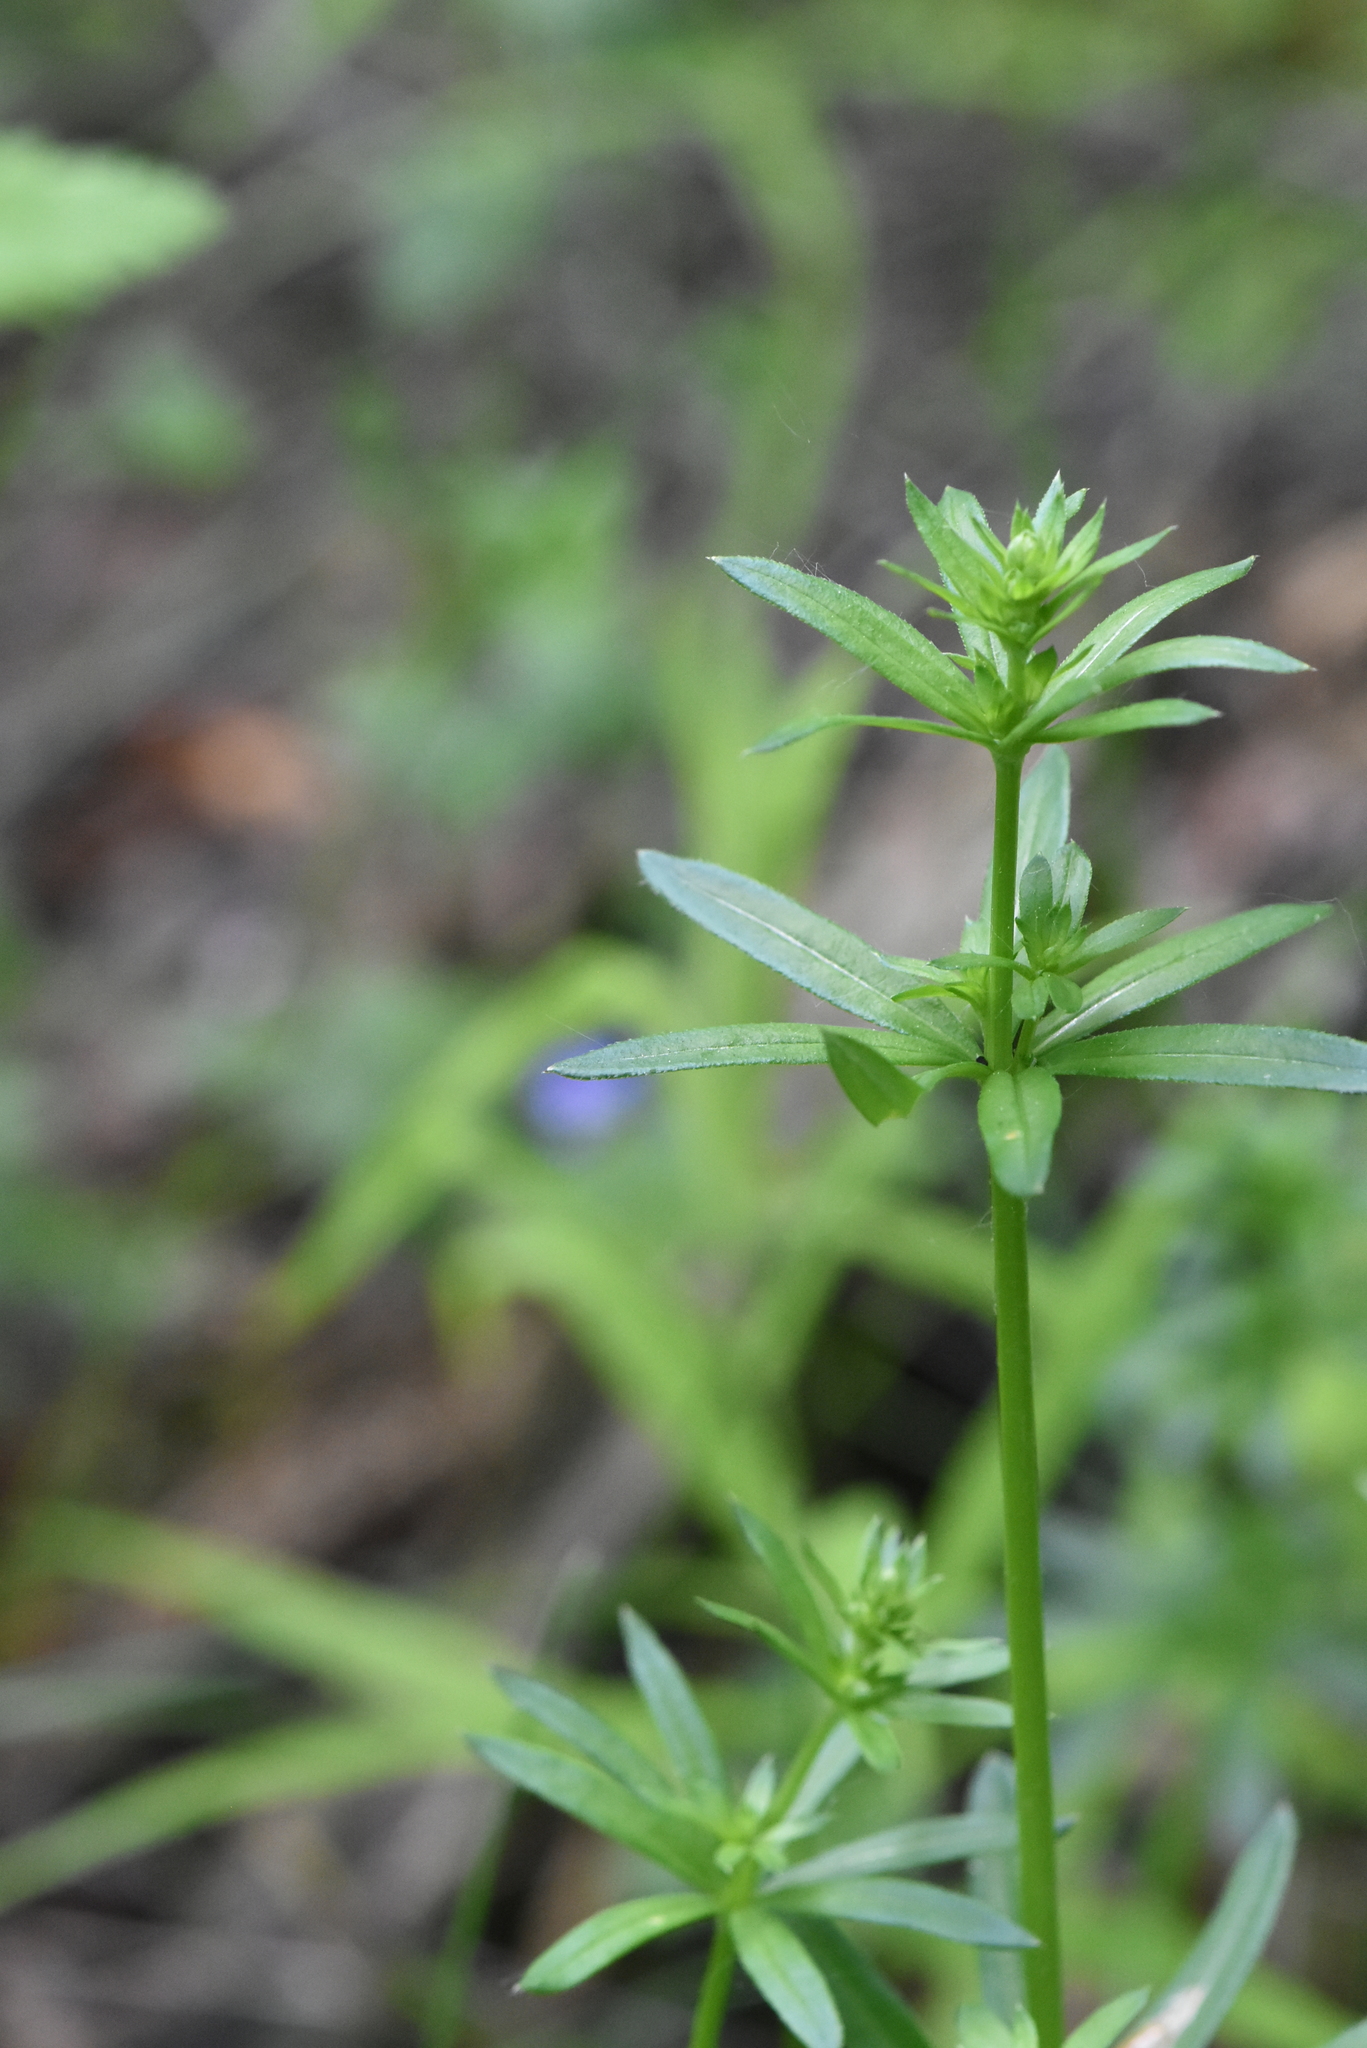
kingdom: Plantae
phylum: Tracheophyta
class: Magnoliopsida
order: Gentianales
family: Rubiaceae
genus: Galium
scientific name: Galium mollugo
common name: Hedge bedstraw
